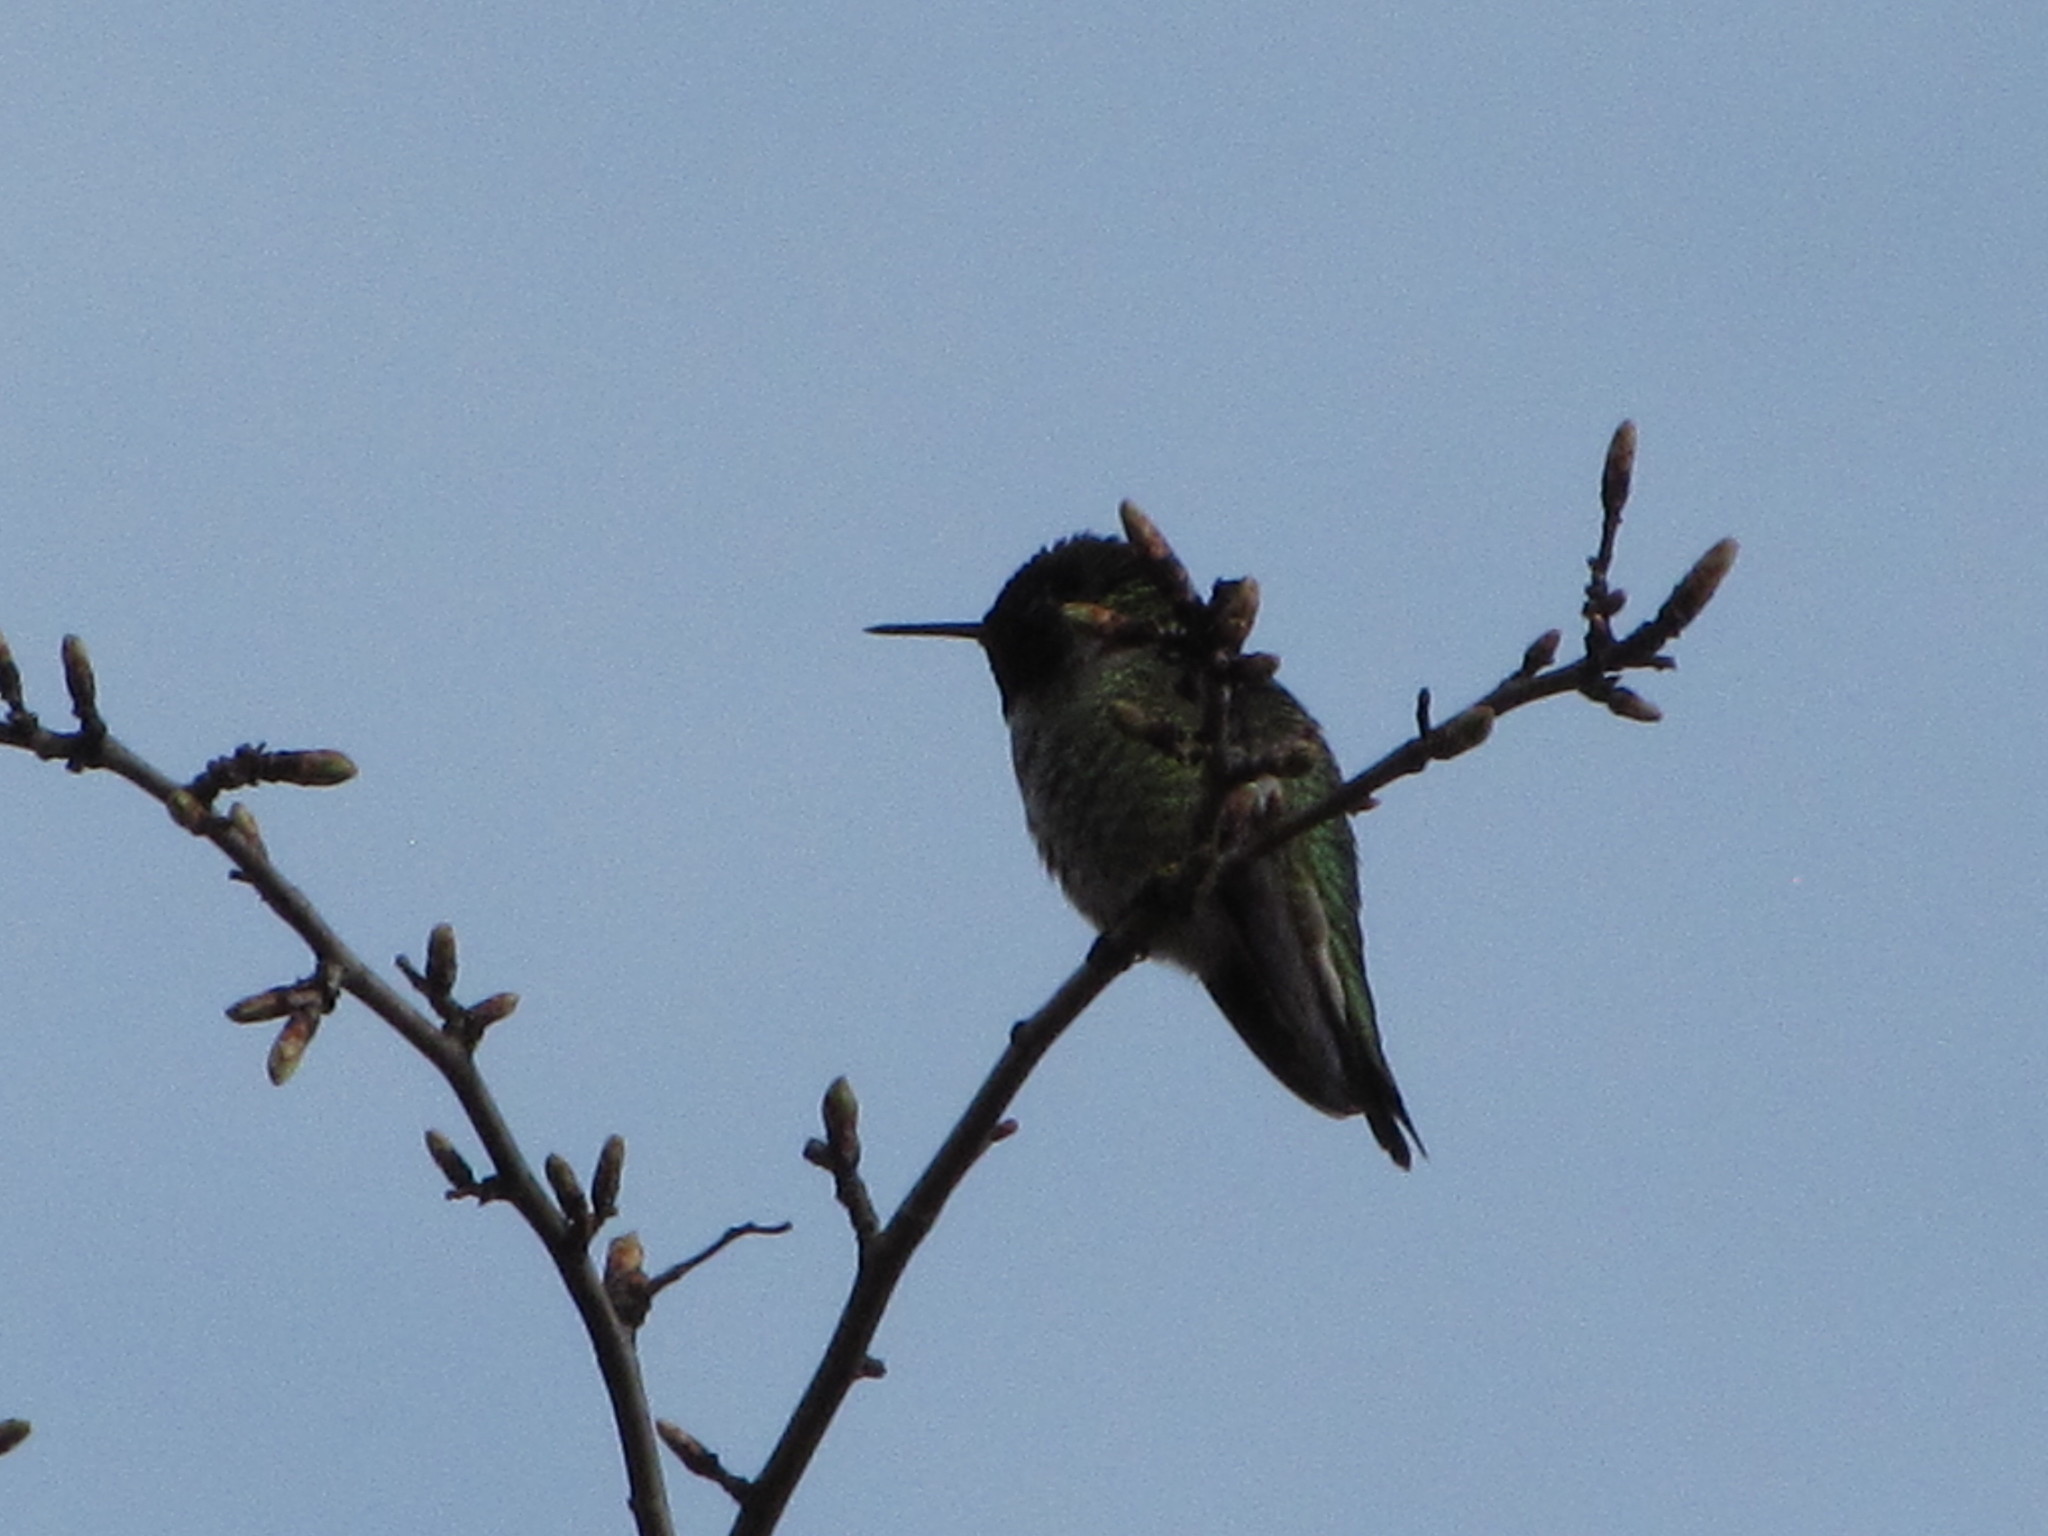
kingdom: Animalia
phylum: Chordata
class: Aves
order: Apodiformes
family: Trochilidae
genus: Calypte
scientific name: Calypte anna
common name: Anna's hummingbird
